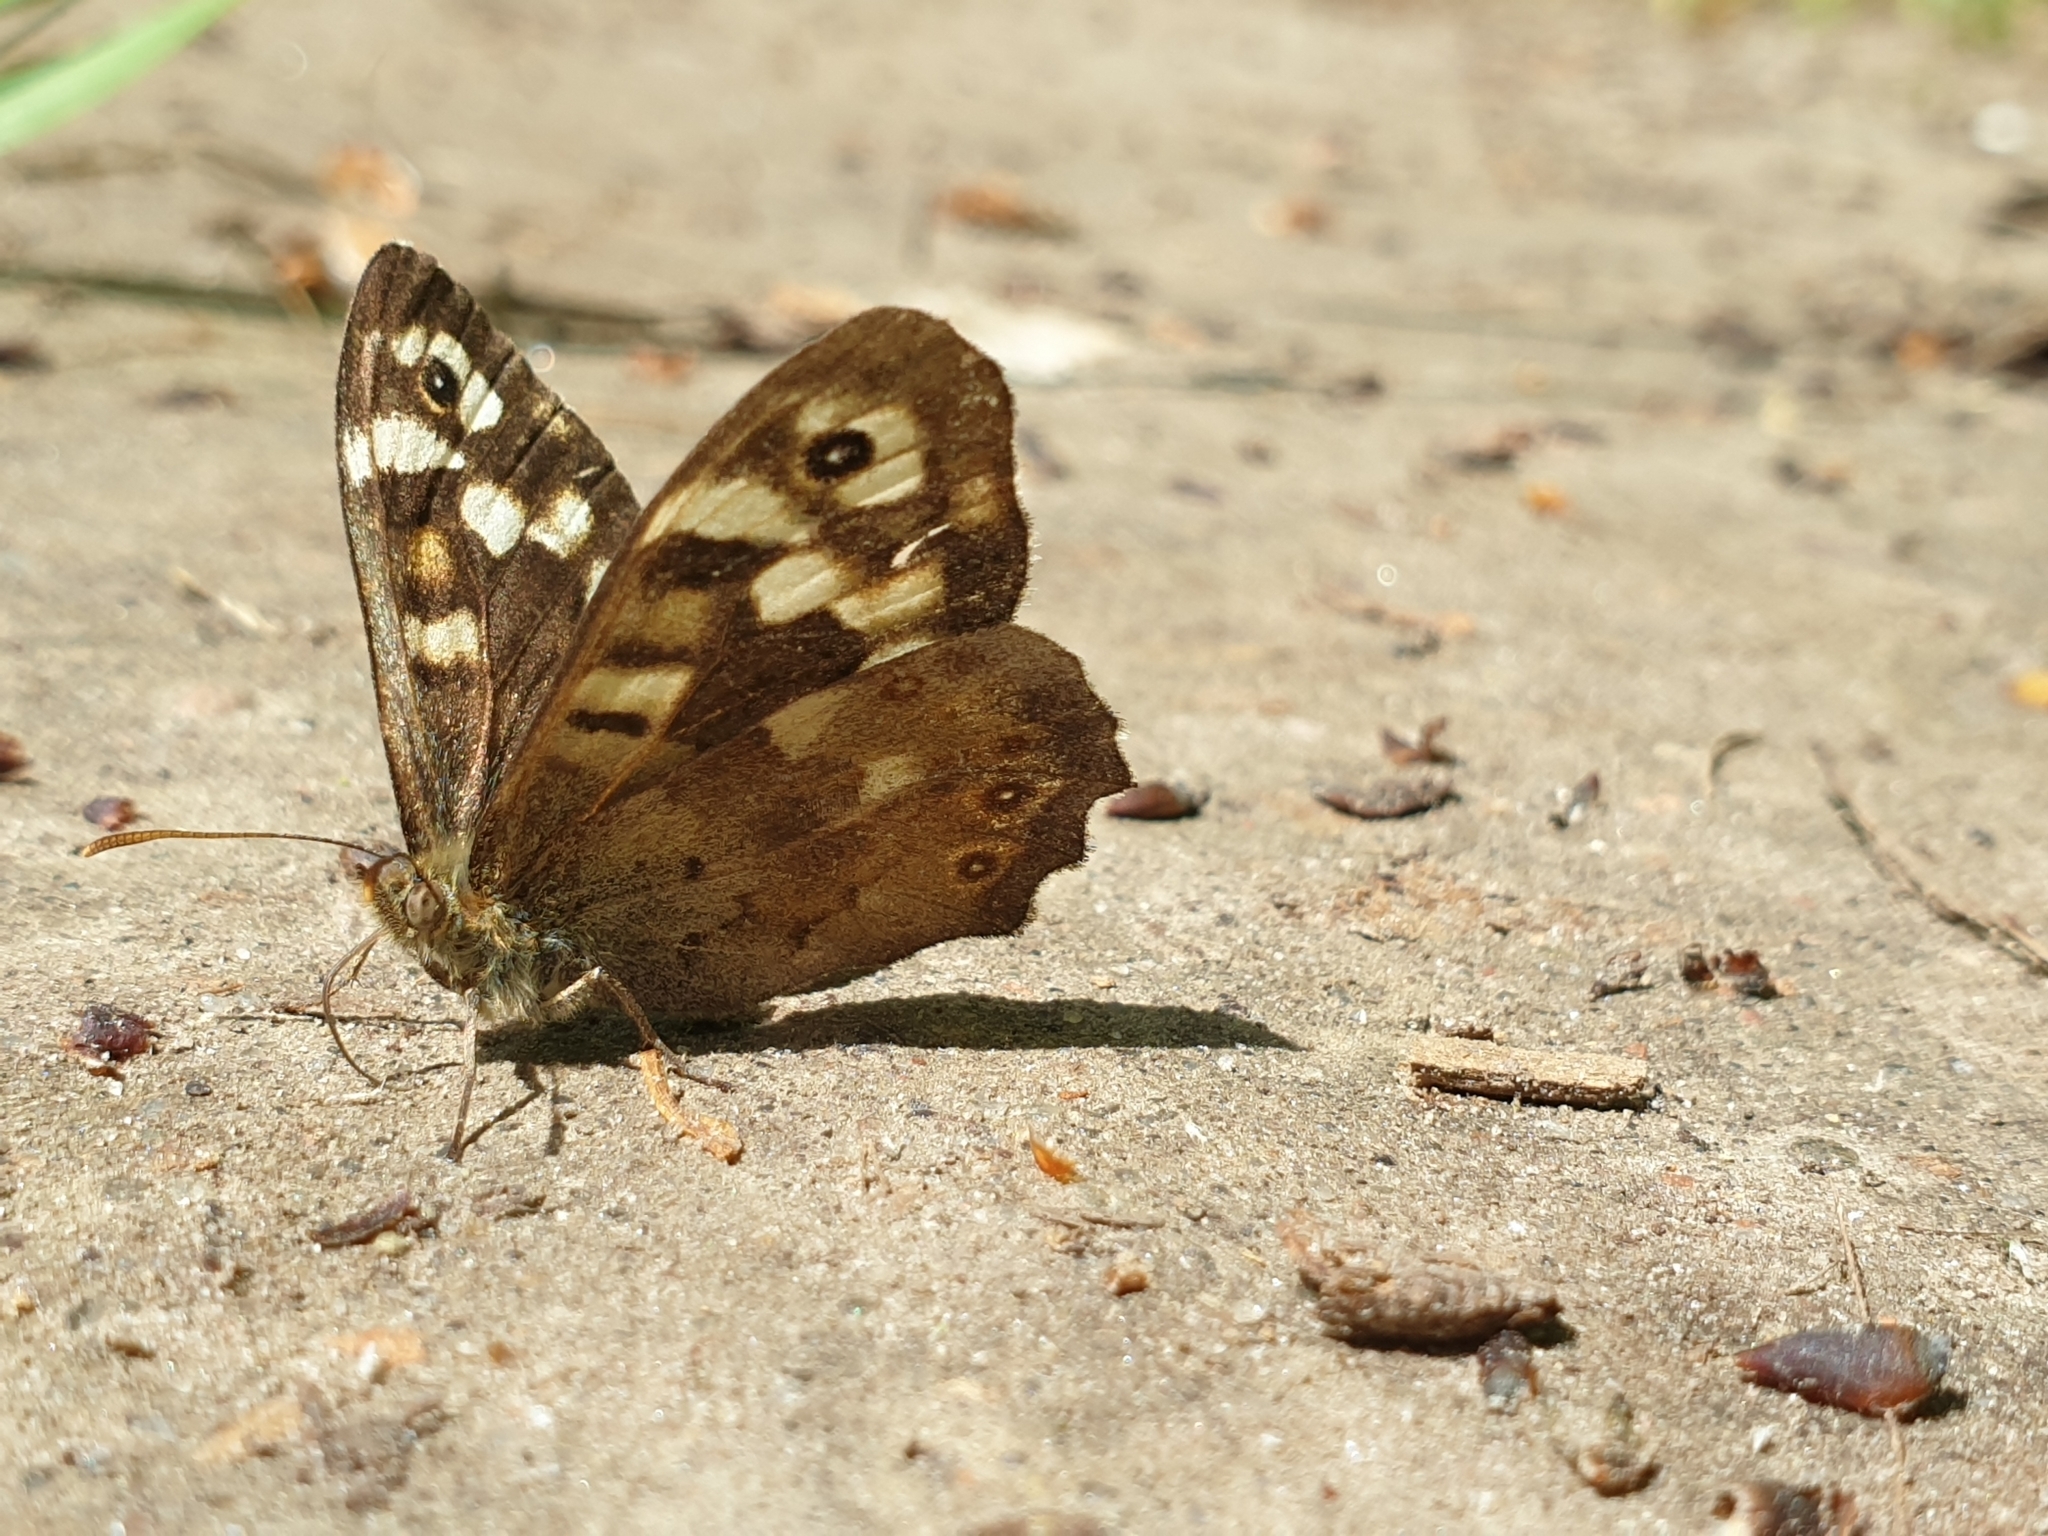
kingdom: Animalia
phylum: Arthropoda
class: Insecta
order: Lepidoptera
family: Nymphalidae
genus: Pararge
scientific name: Pararge aegeria
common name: Speckled wood
